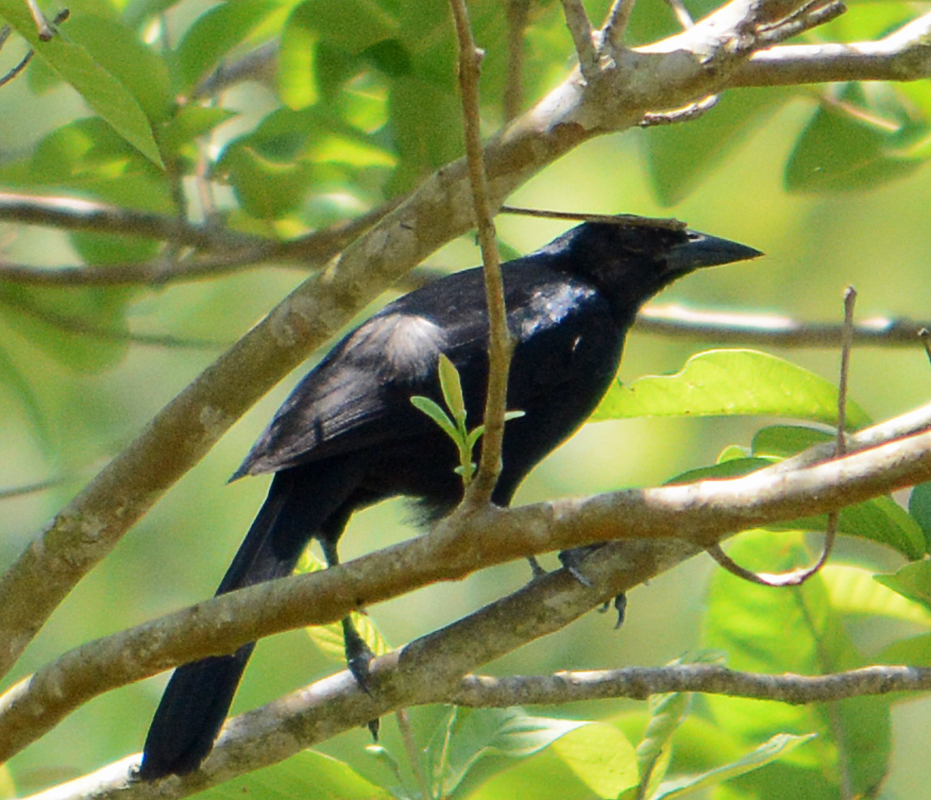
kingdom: Animalia
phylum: Chordata
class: Aves
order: Passeriformes
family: Icteridae
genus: Dives
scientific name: Dives dives
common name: Melodious blackbird
